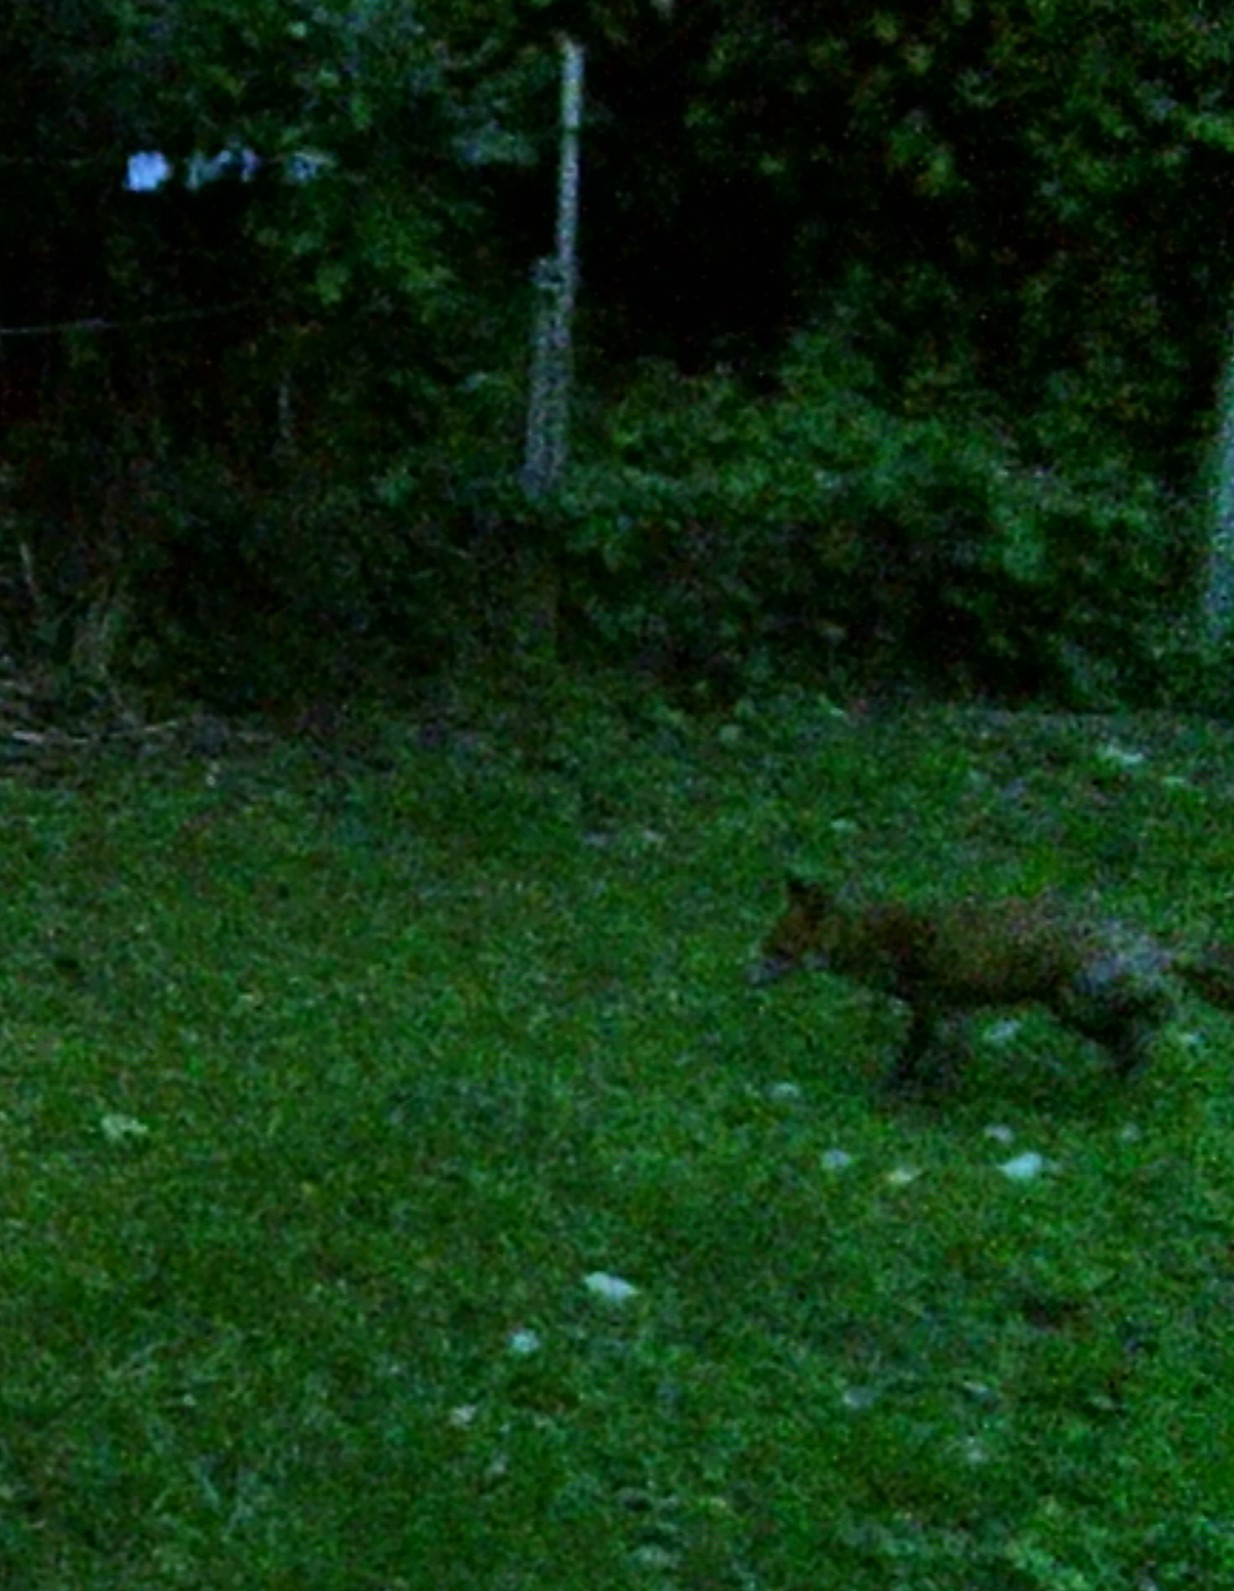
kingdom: Animalia
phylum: Chordata
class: Mammalia
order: Carnivora
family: Canidae
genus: Vulpes
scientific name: Vulpes vulpes
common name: Red fox
